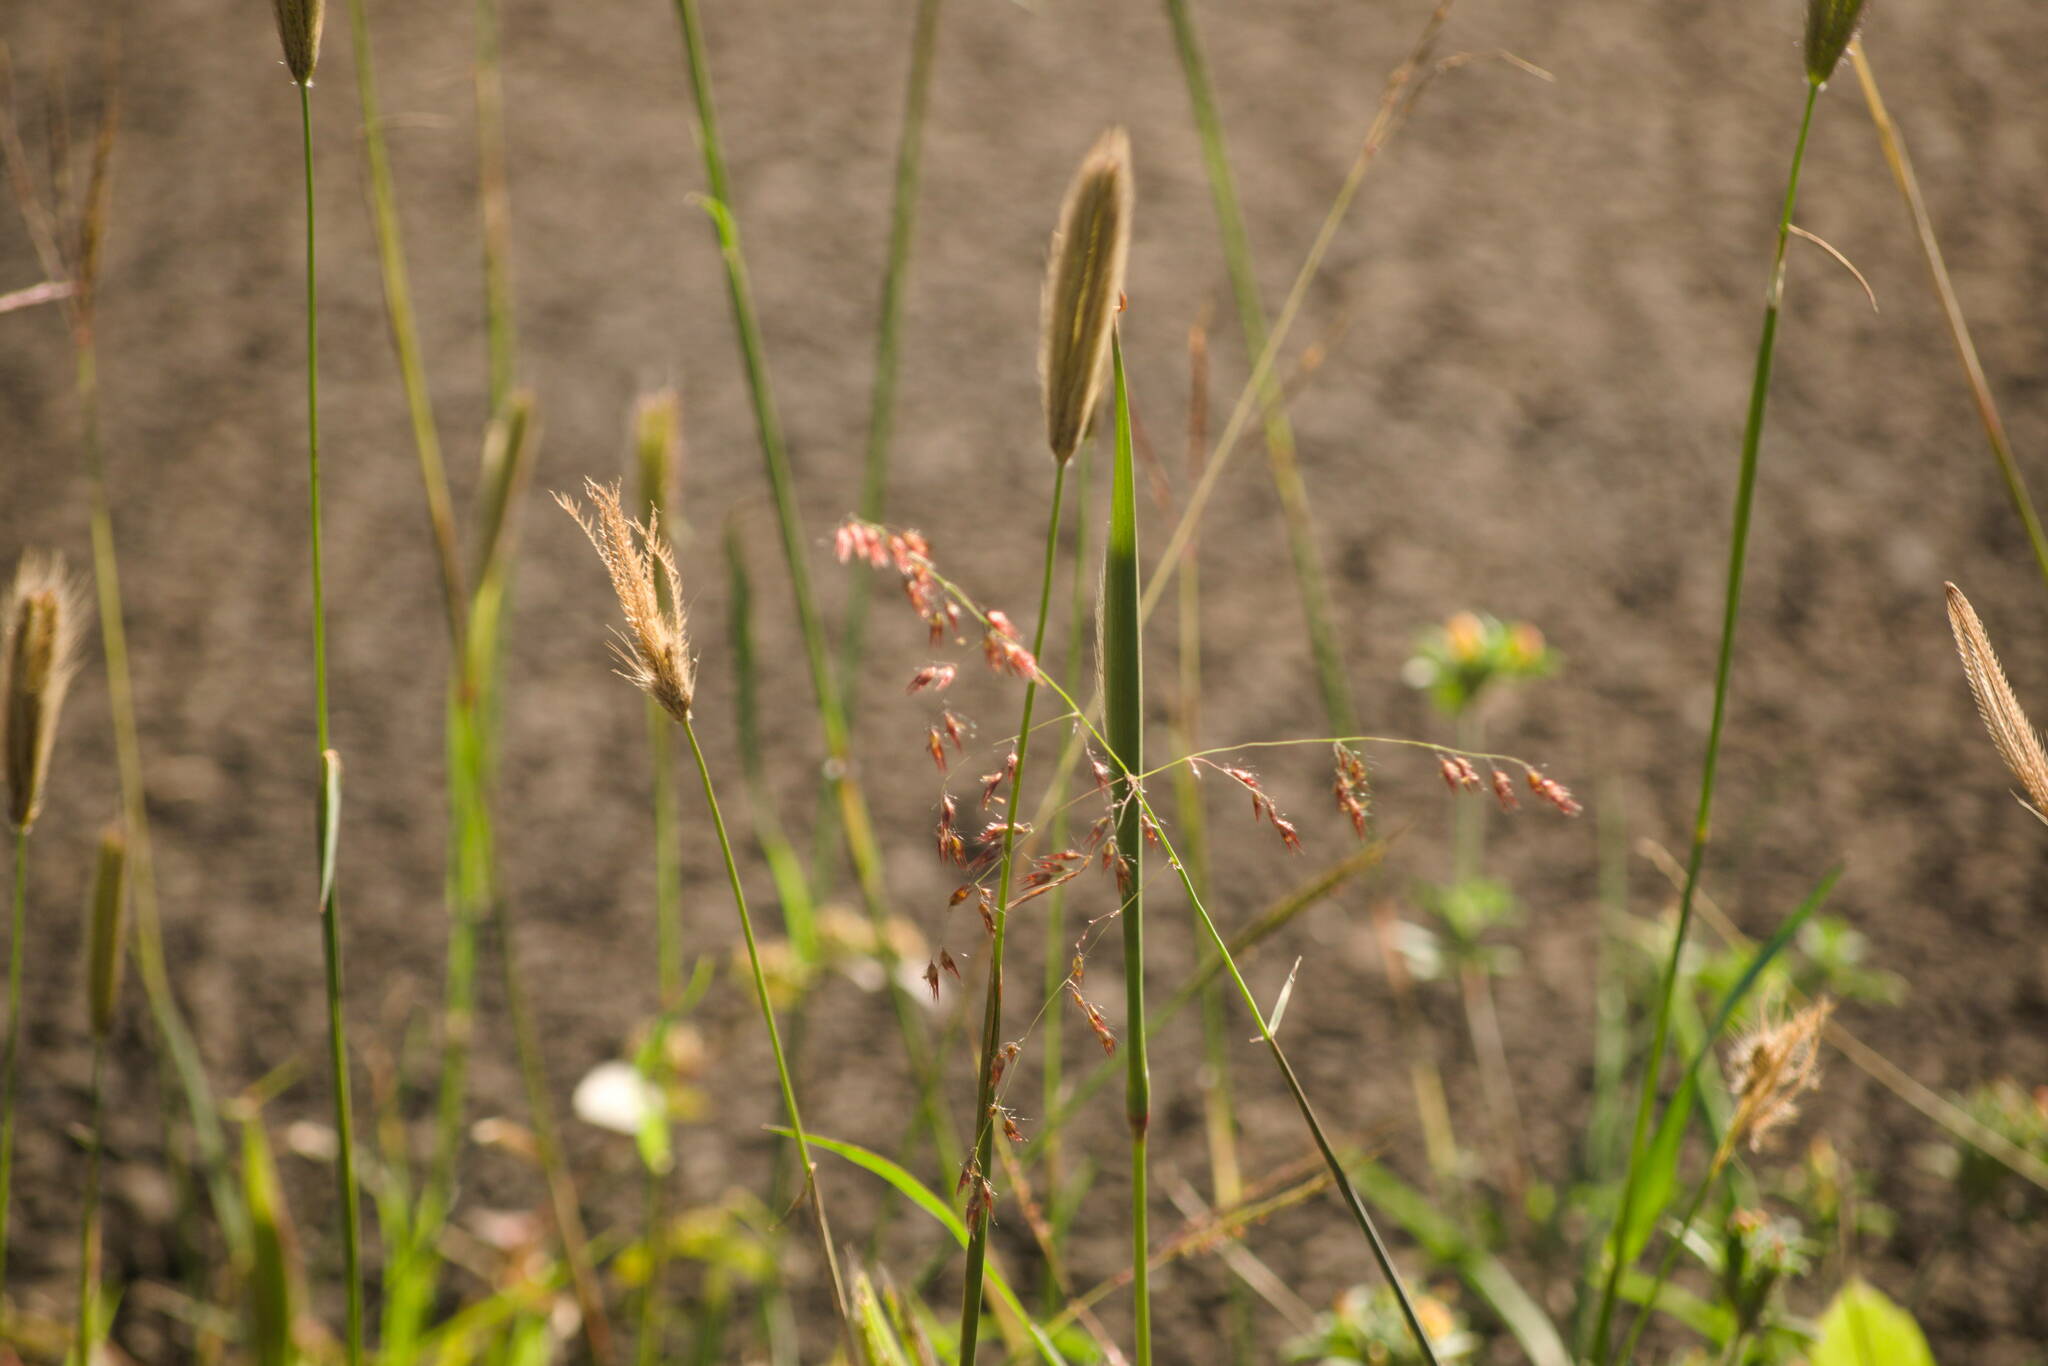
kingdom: Plantae
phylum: Tracheophyta
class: Liliopsida
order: Poales
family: Poaceae
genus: Melinis
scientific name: Melinis repens
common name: Rose natal grass
